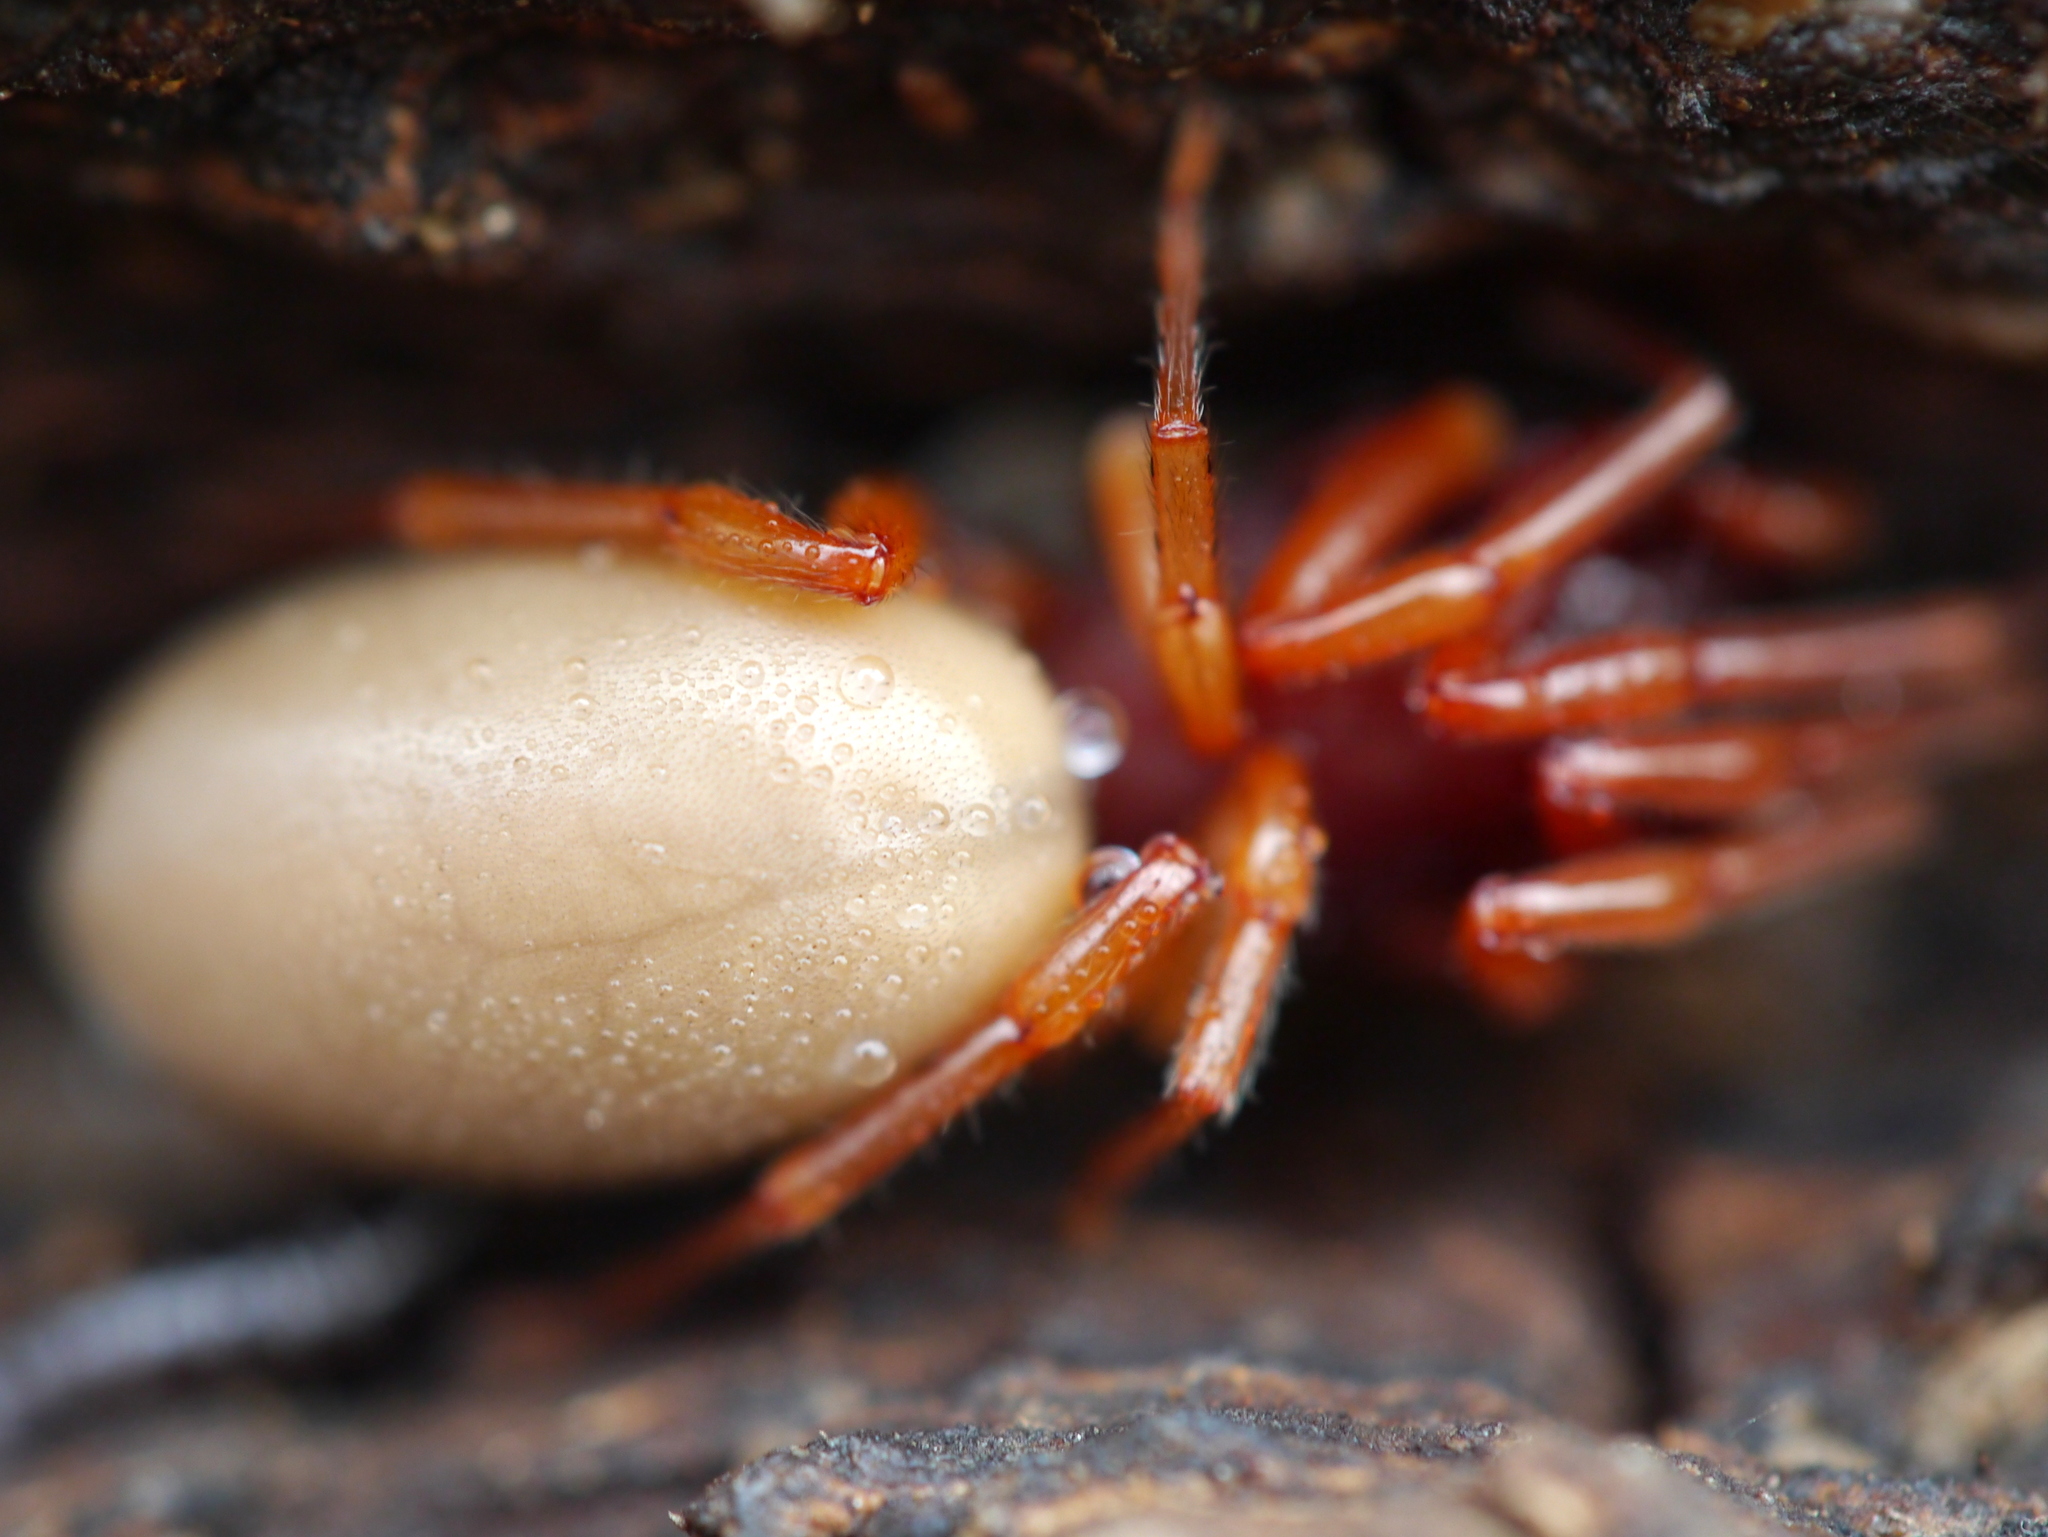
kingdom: Animalia
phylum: Arthropoda
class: Arachnida
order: Araneae
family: Dysderidae
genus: Dysdera
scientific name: Dysdera crocata
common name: Woodlouse spider
